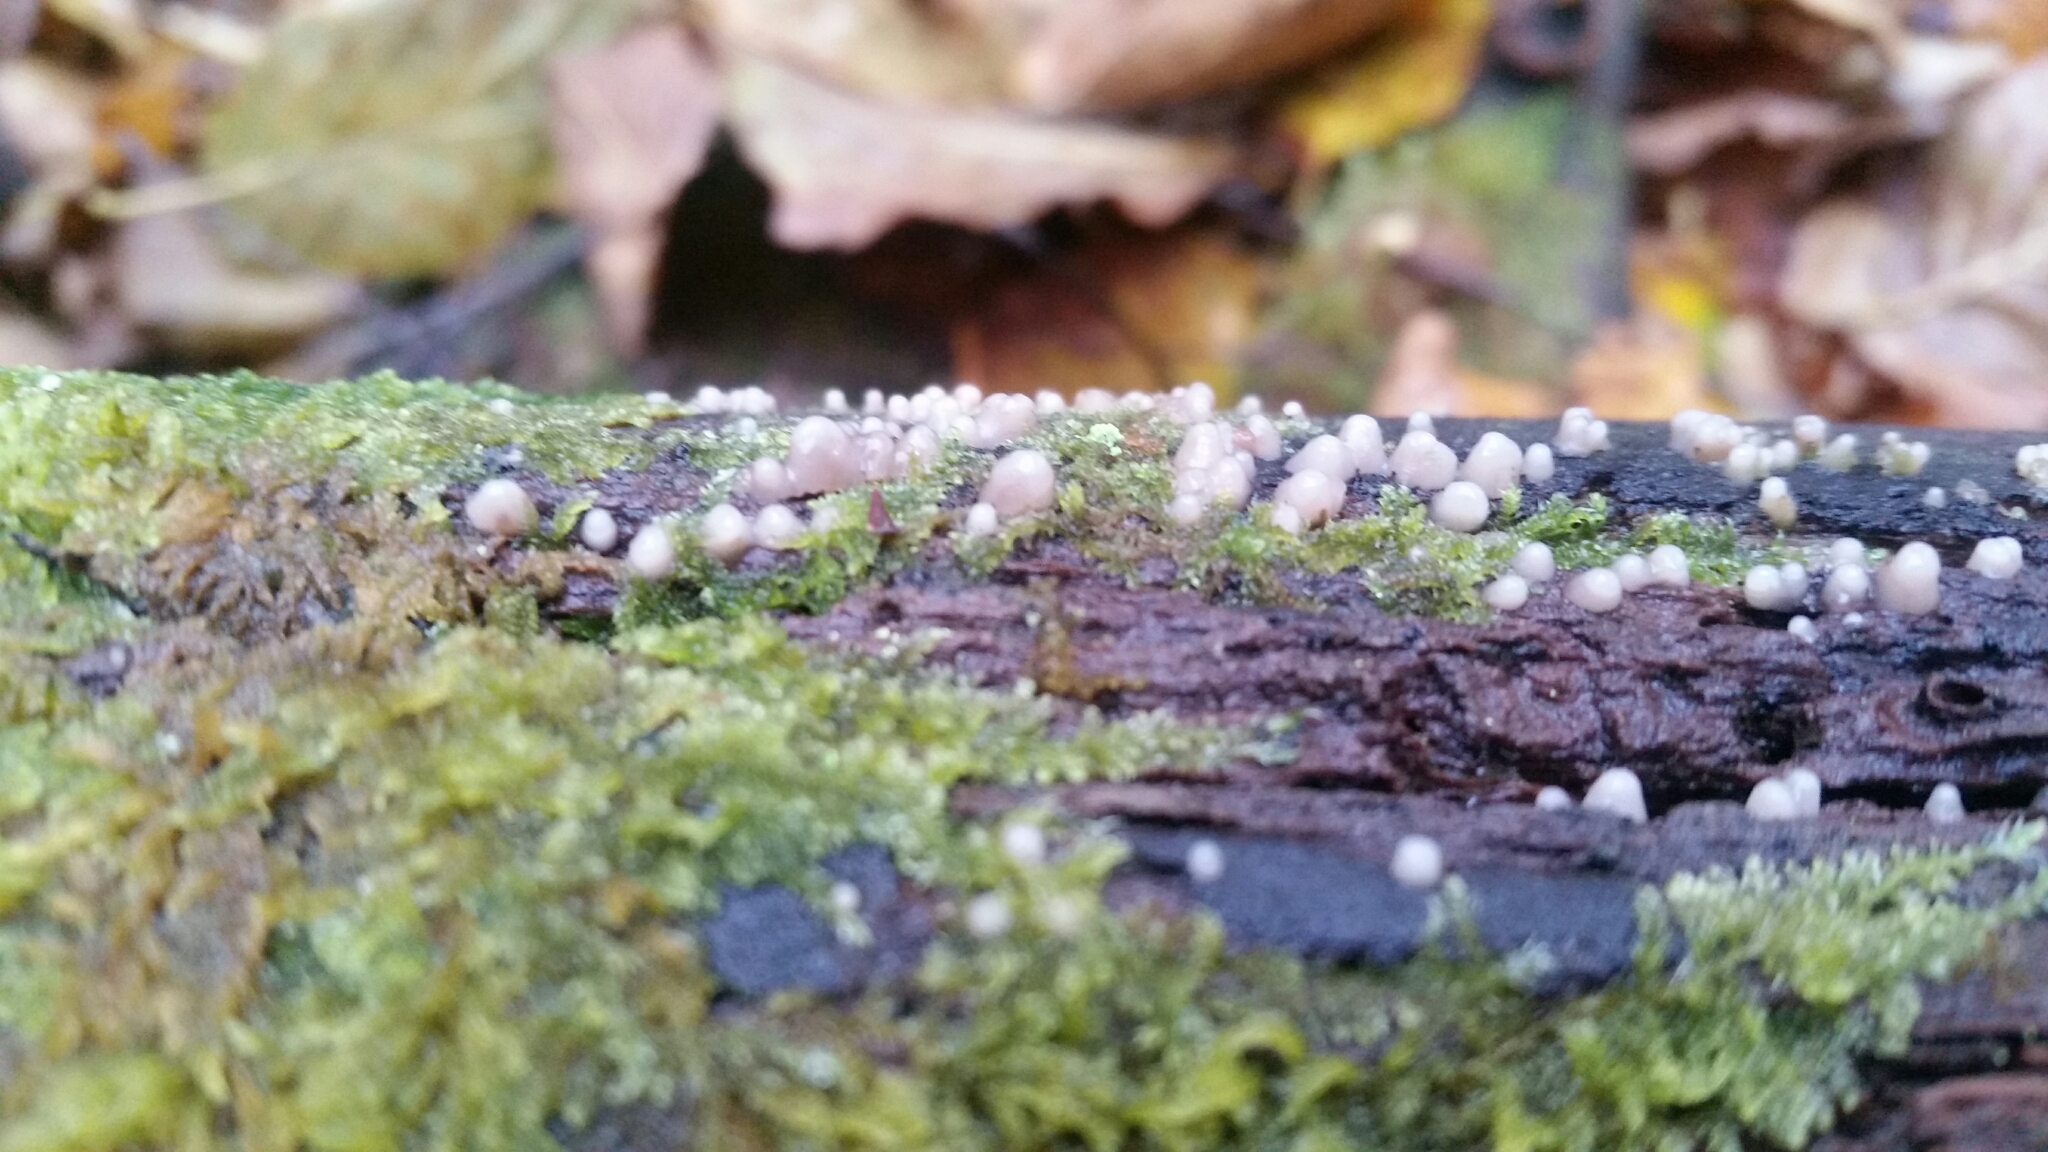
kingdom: Fungi
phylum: Basidiomycota
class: Atractiellomycetes
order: Atractiellales
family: Phleogenaceae
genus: Helicogloea
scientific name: Helicogloea compressa
